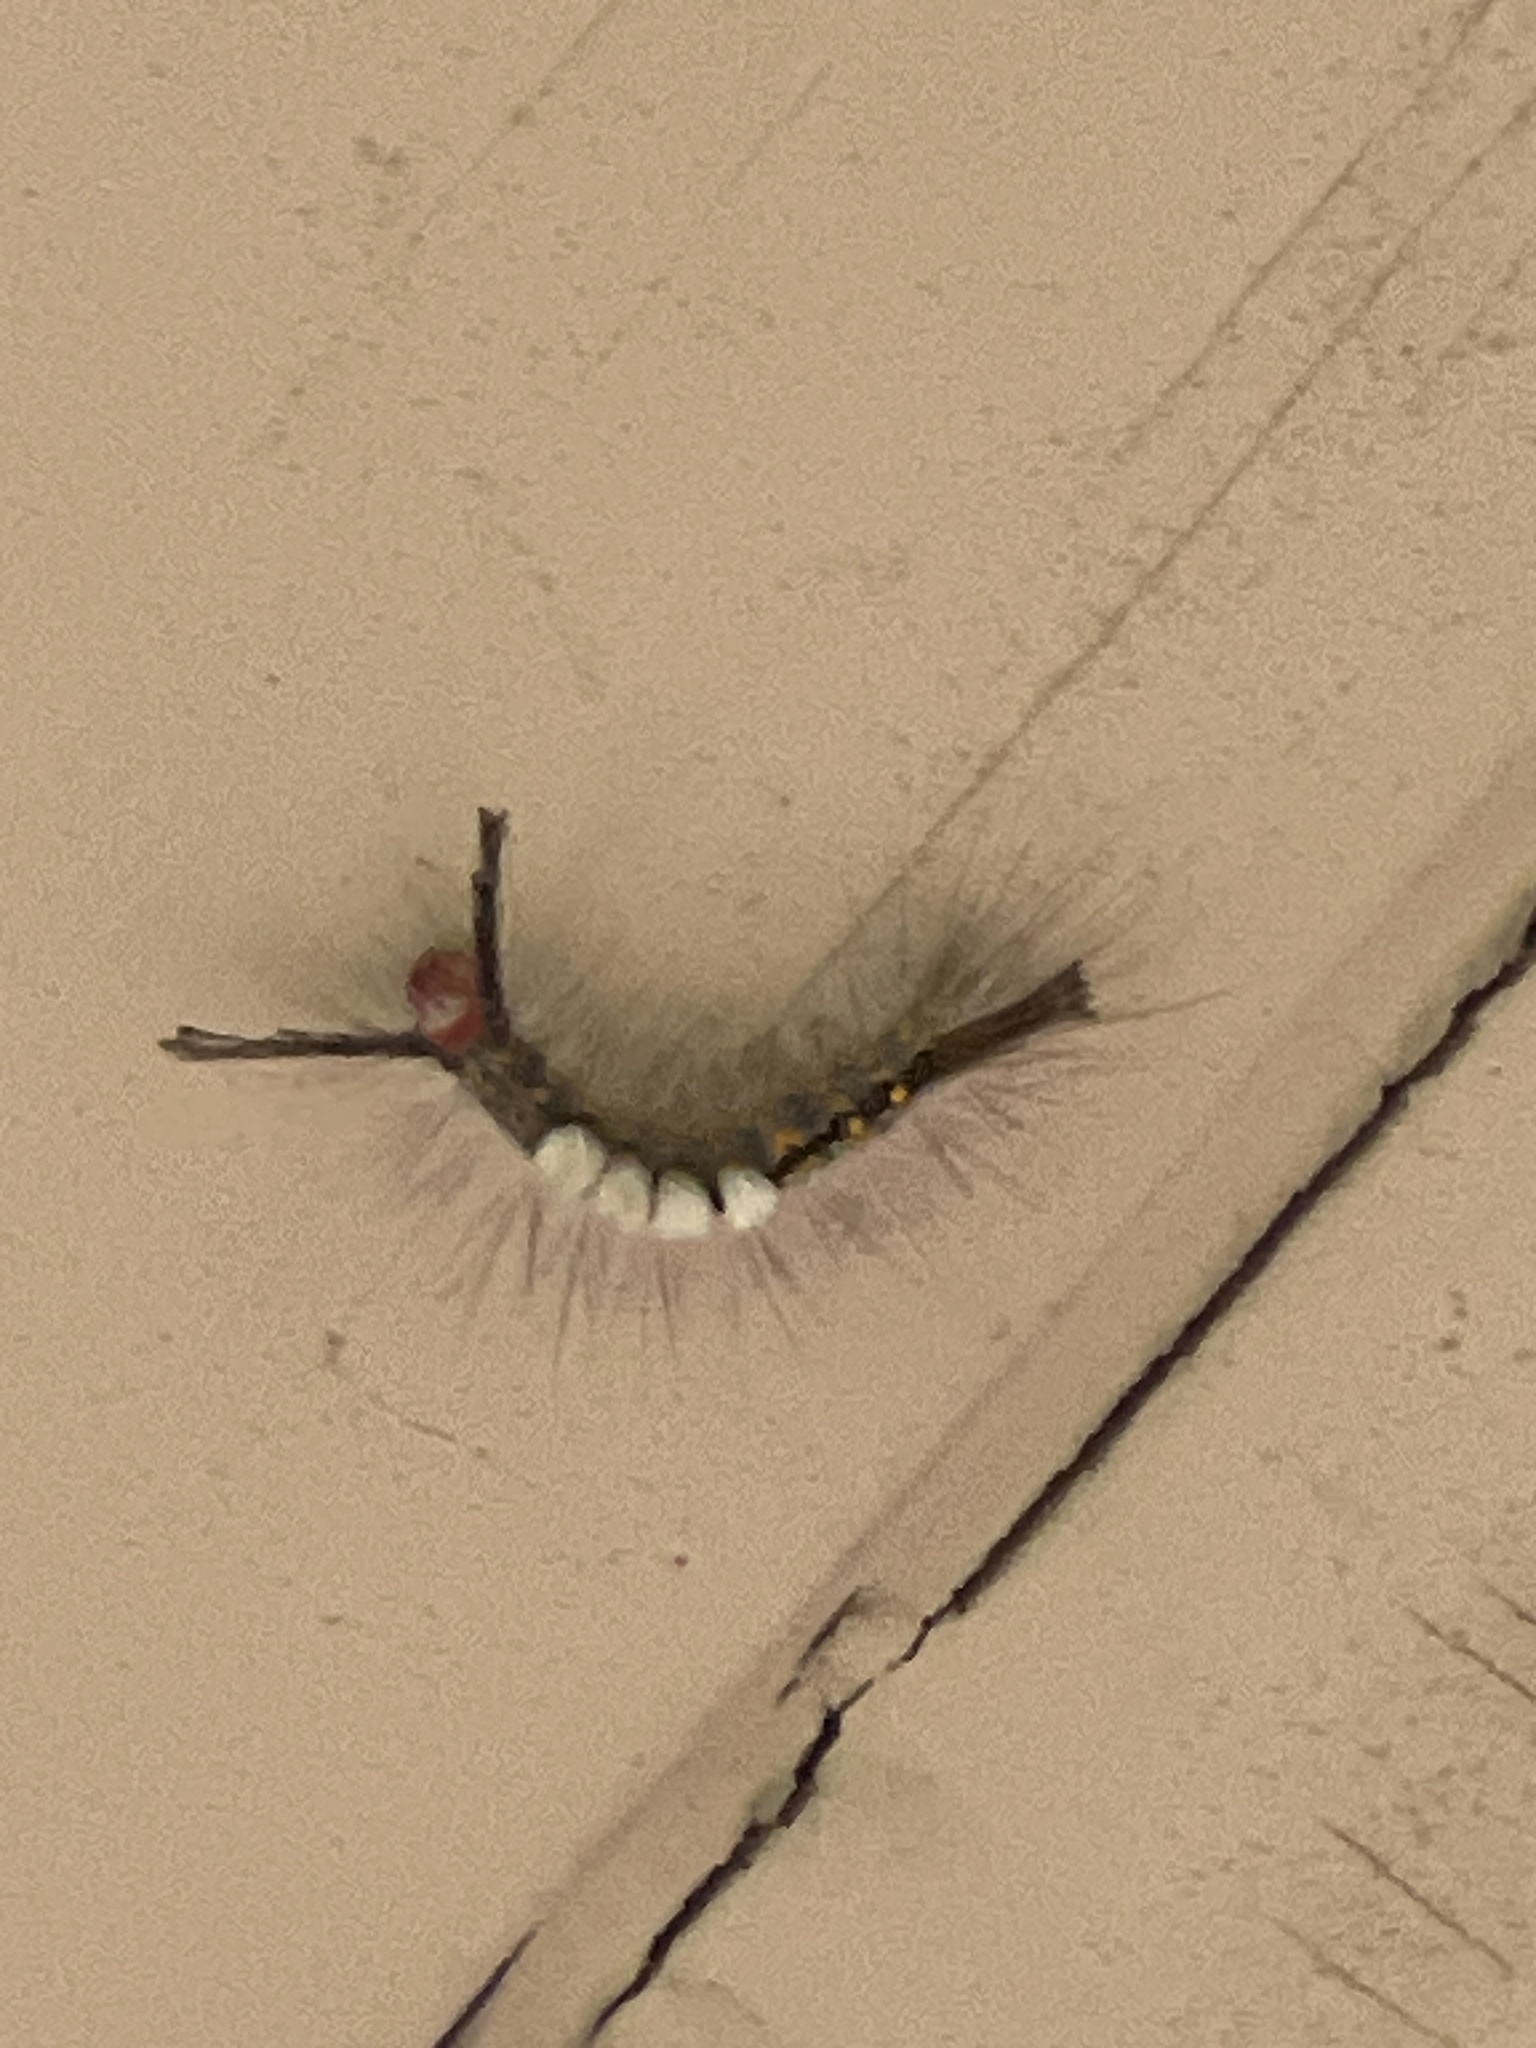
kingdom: Animalia
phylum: Arthropoda
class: Insecta
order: Lepidoptera
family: Erebidae
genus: Orgyia
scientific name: Orgyia detrita
